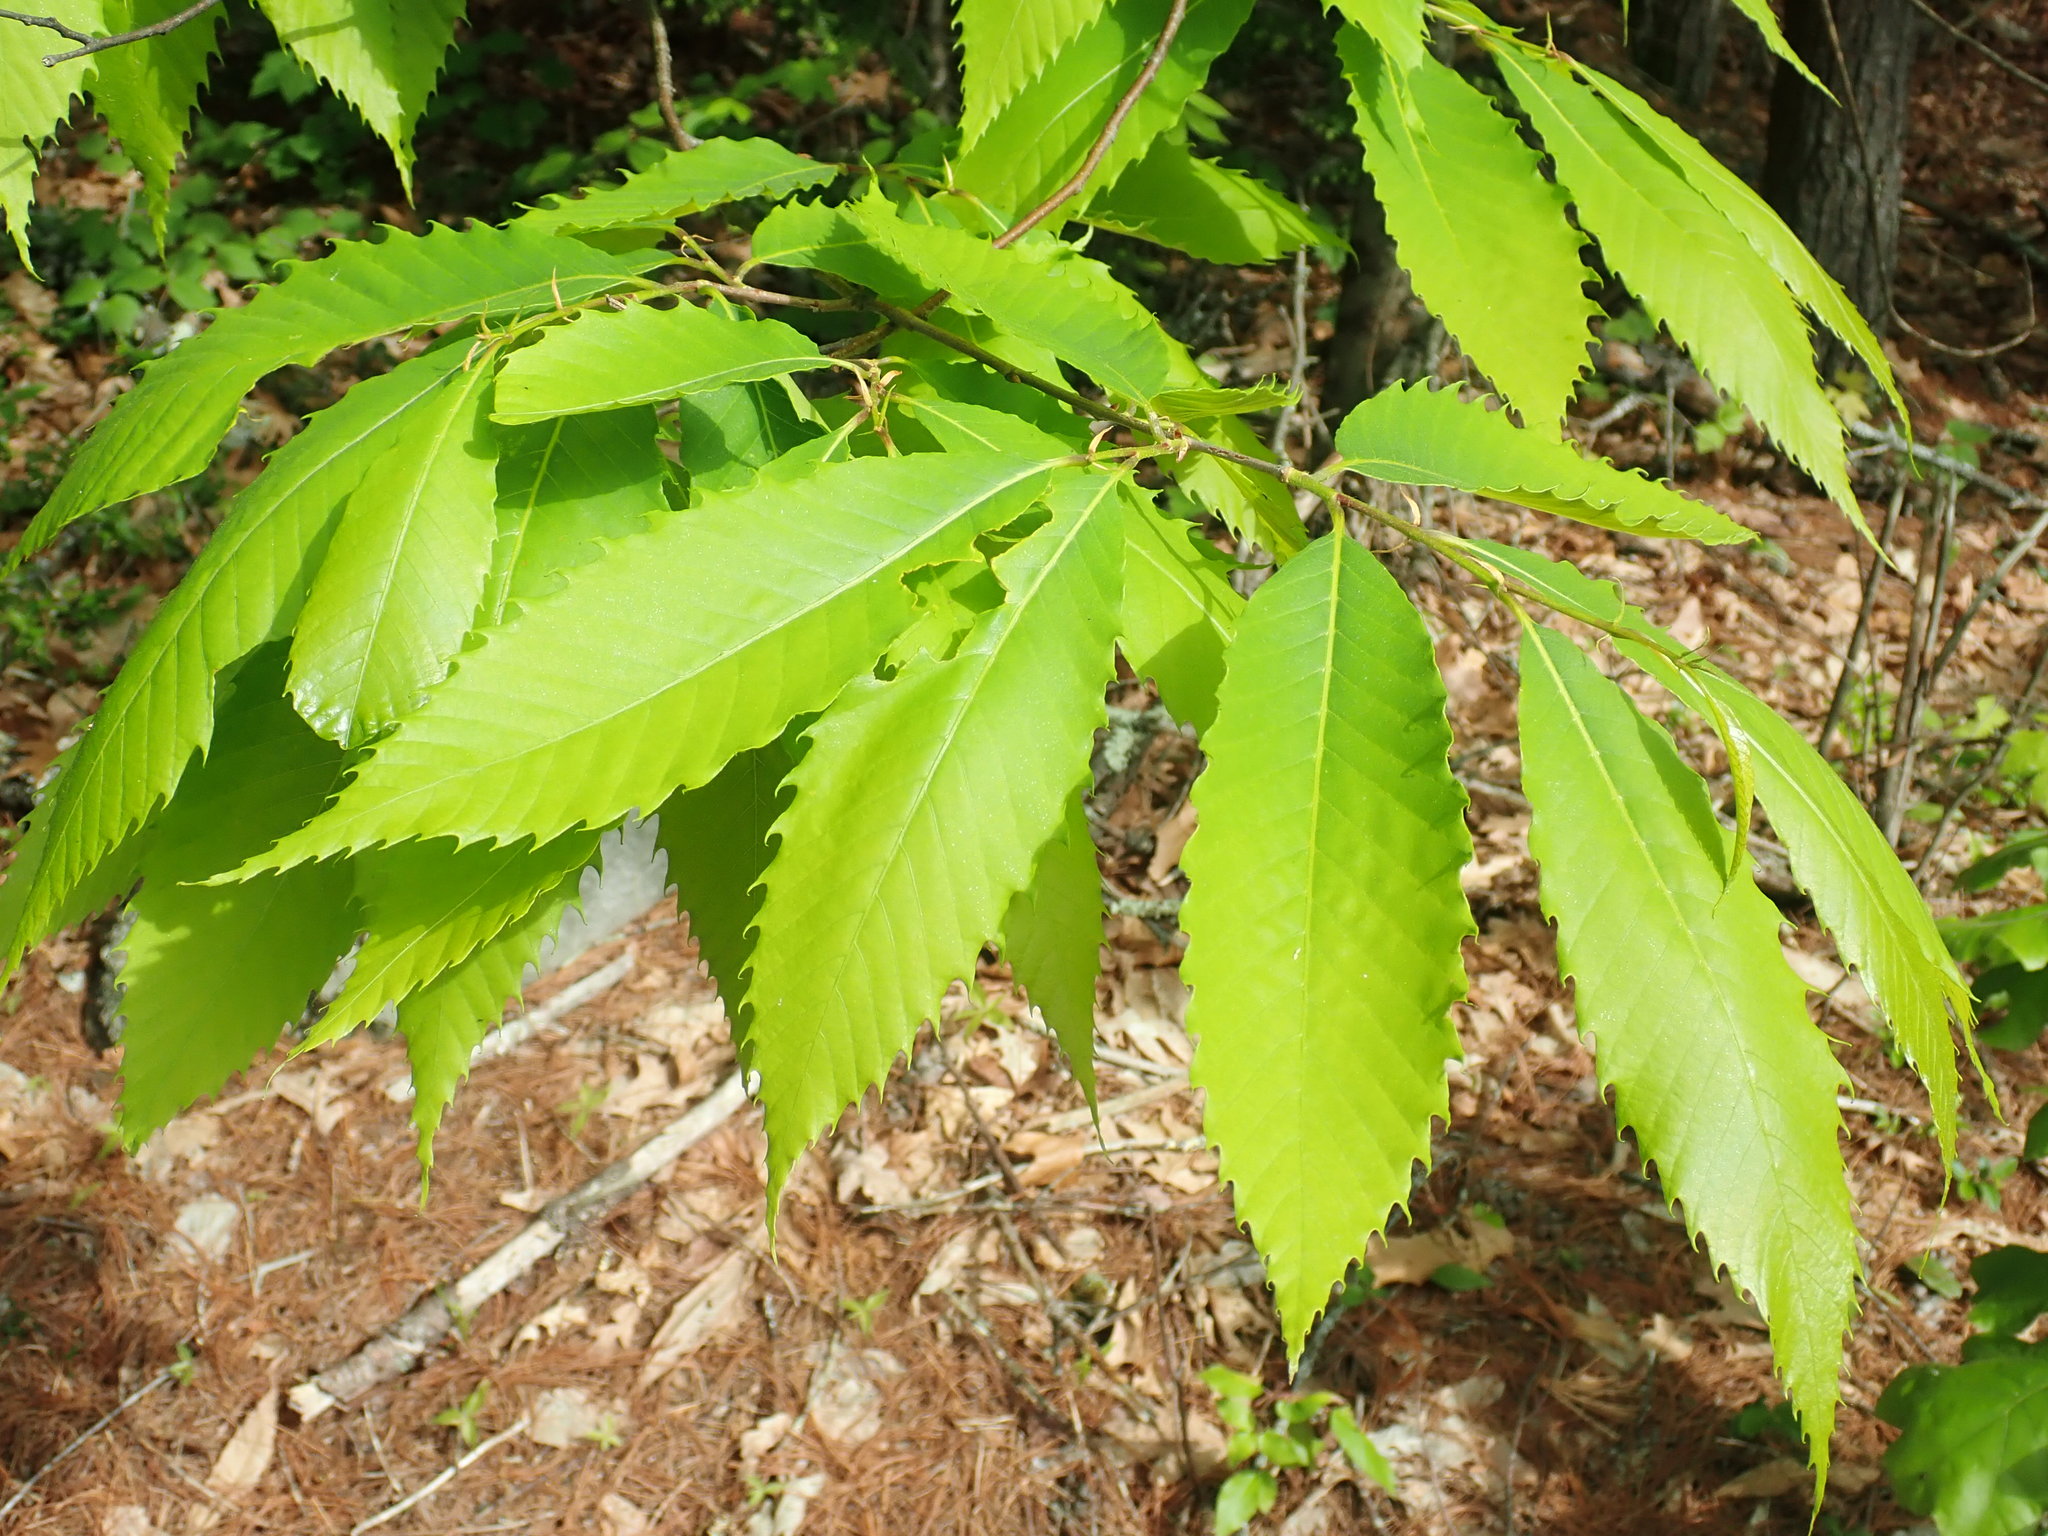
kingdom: Plantae
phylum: Tracheophyta
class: Magnoliopsida
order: Fagales
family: Fagaceae
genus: Castanea
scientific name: Castanea dentata
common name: American chestnut
